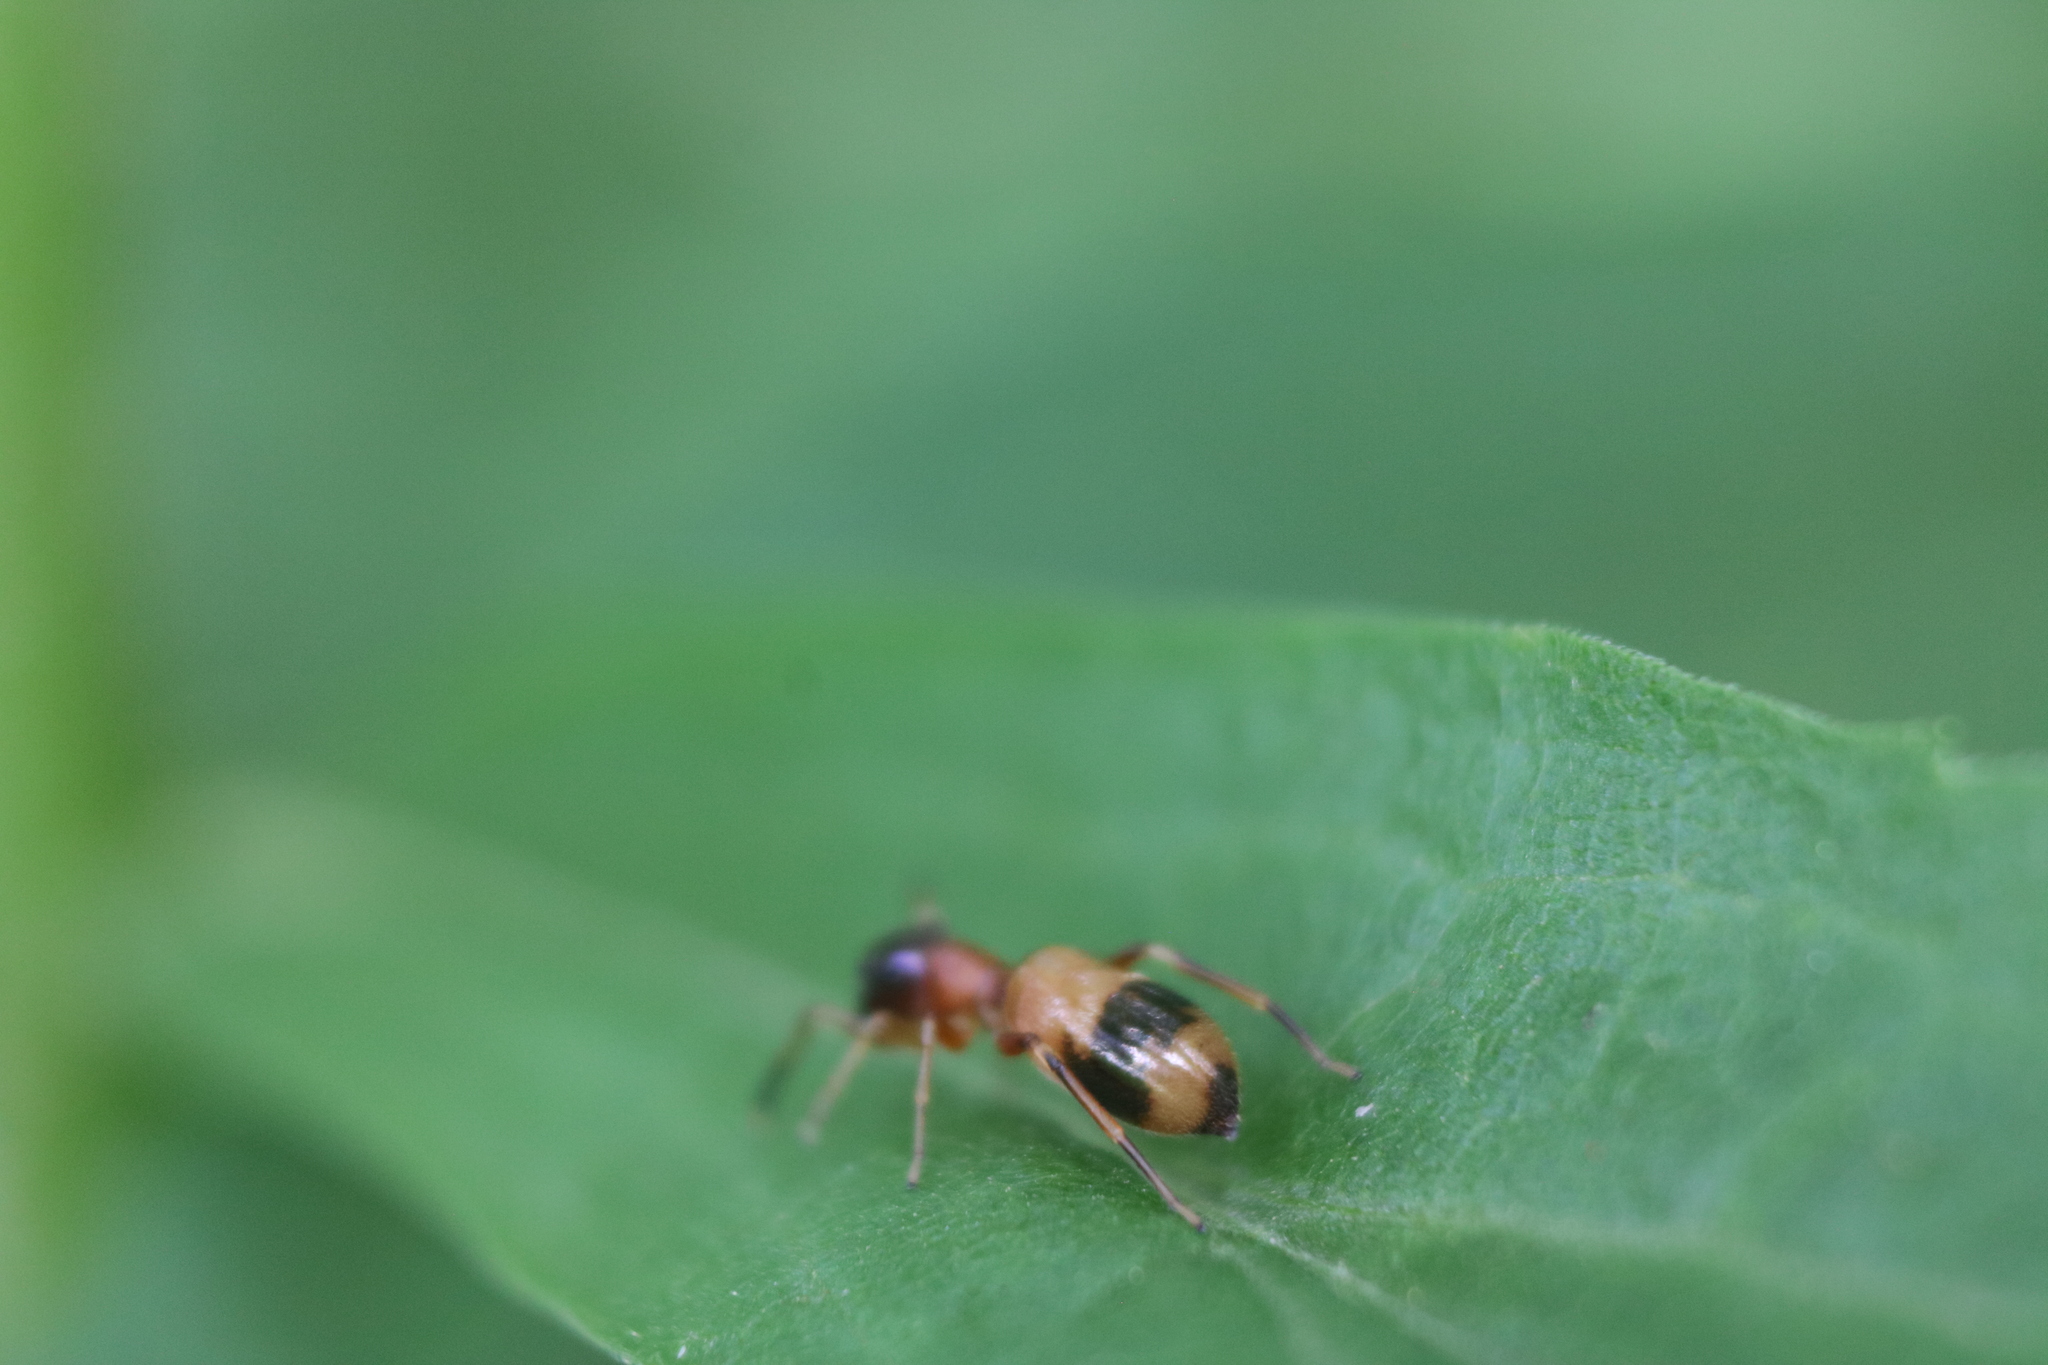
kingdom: Animalia
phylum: Arthropoda
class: Arachnida
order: Araneae
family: Salticidae
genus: Myrmarachne
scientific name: Myrmarachne formicaria
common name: Ant mimic jumping spider
